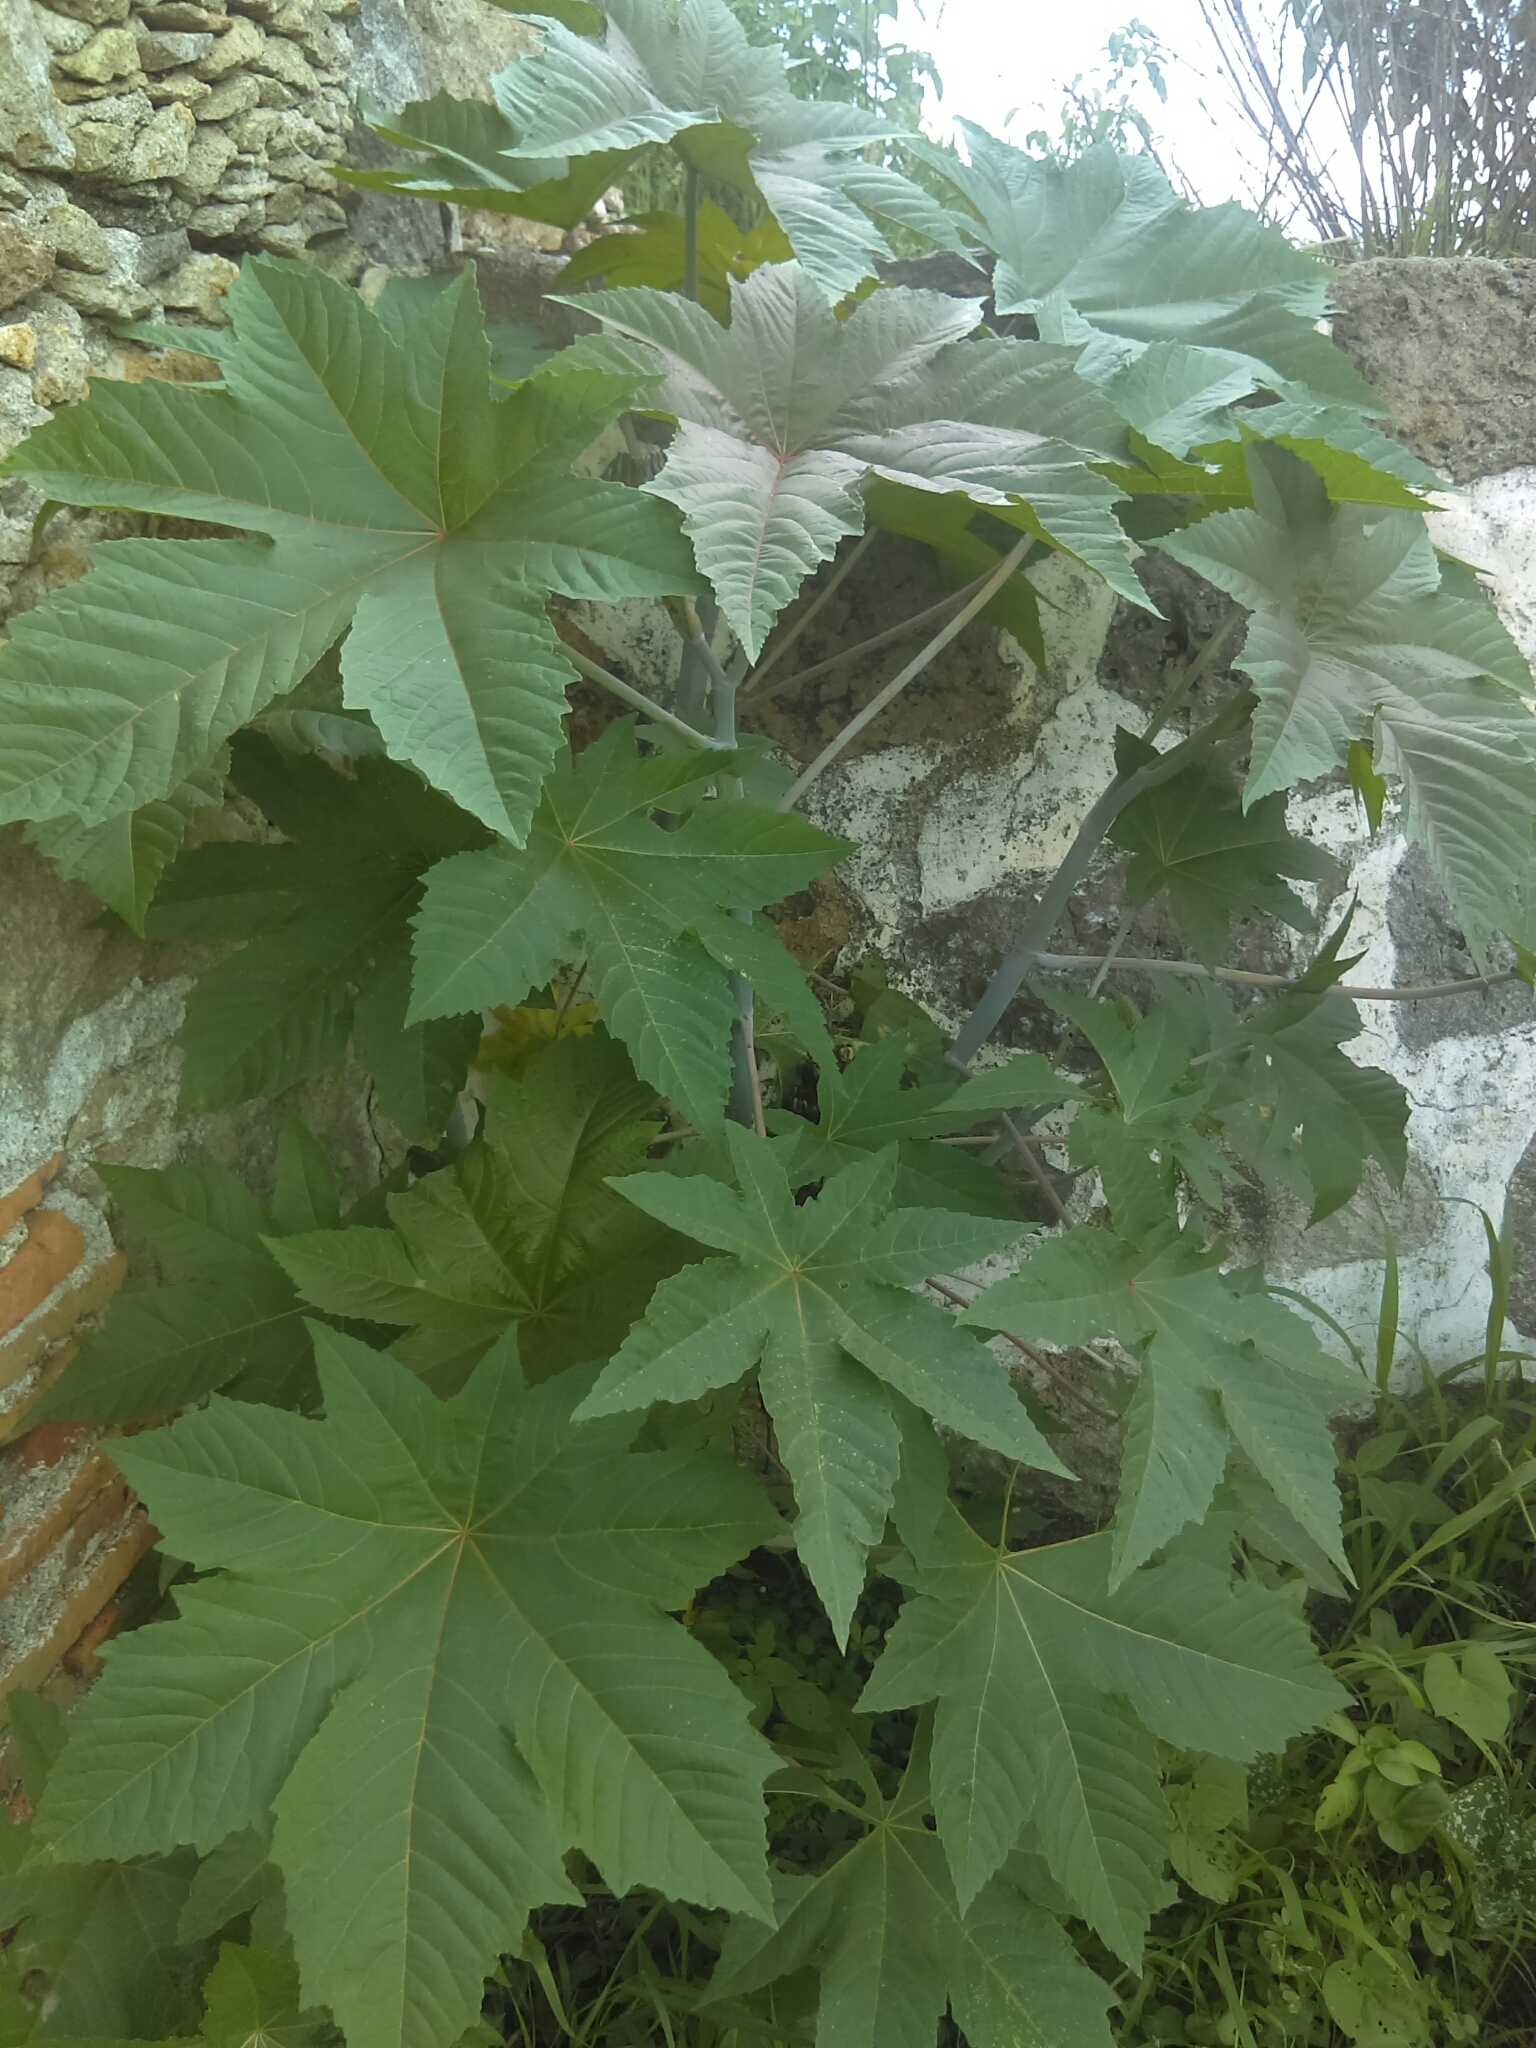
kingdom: Plantae
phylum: Tracheophyta
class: Magnoliopsida
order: Malpighiales
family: Euphorbiaceae
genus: Ricinus
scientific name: Ricinus communis
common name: Castor-oil-plant
